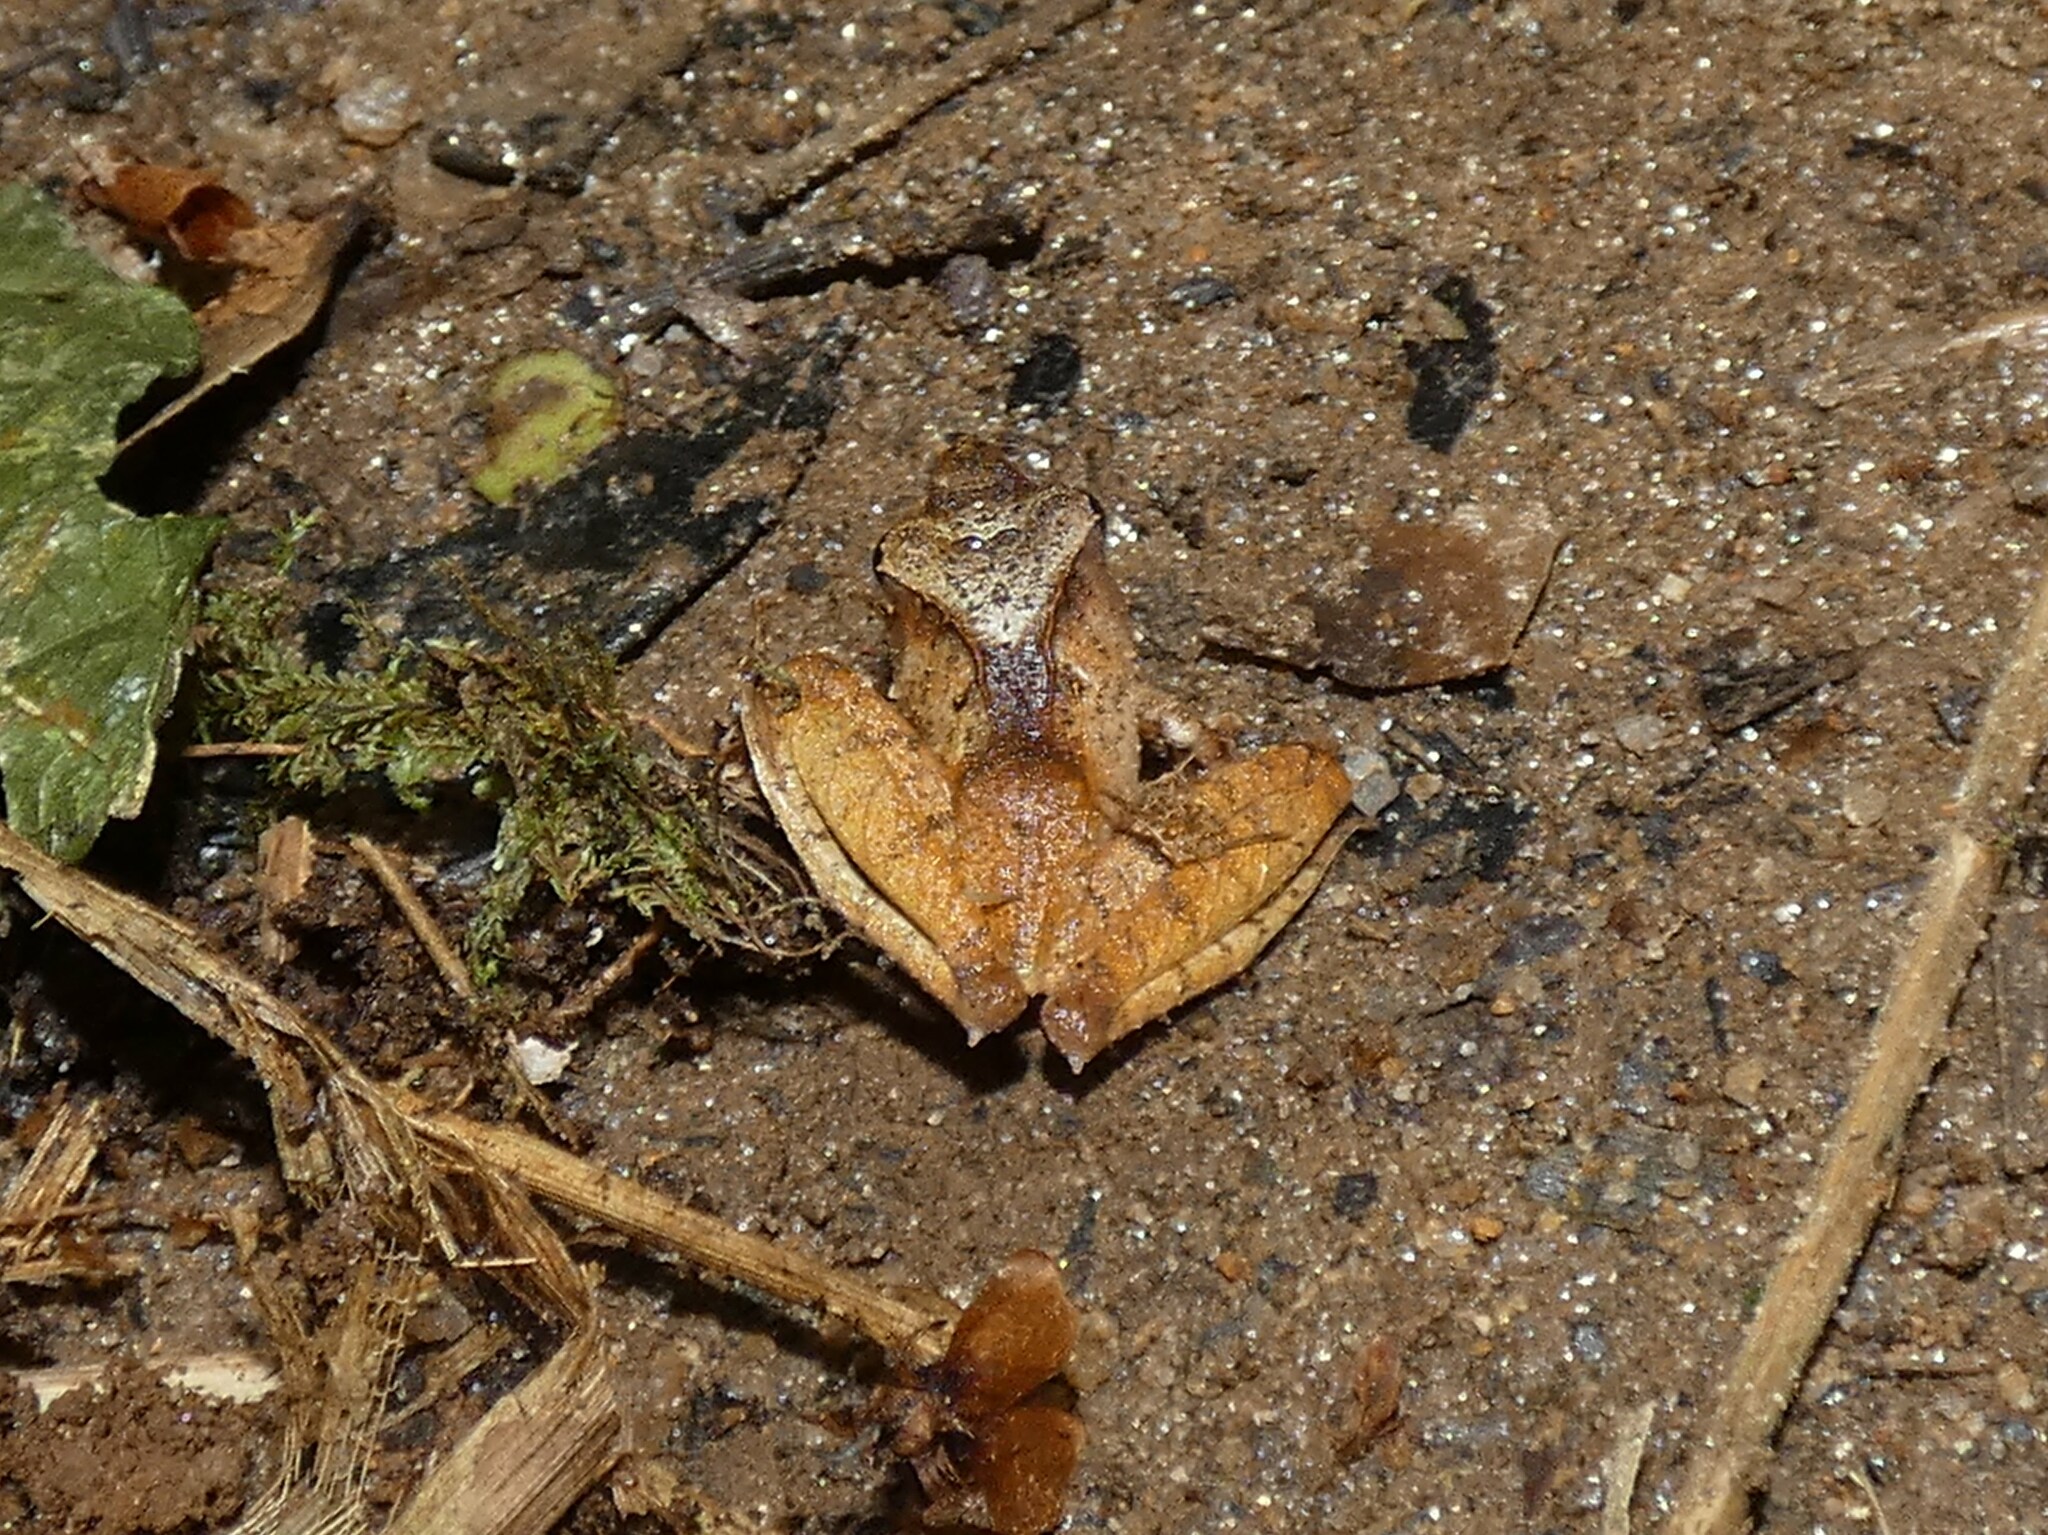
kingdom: Animalia
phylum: Chordata
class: Amphibia
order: Anura
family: Mantellidae
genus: Gephyromantis
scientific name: Gephyromantis luteus
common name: White madagascar frog
